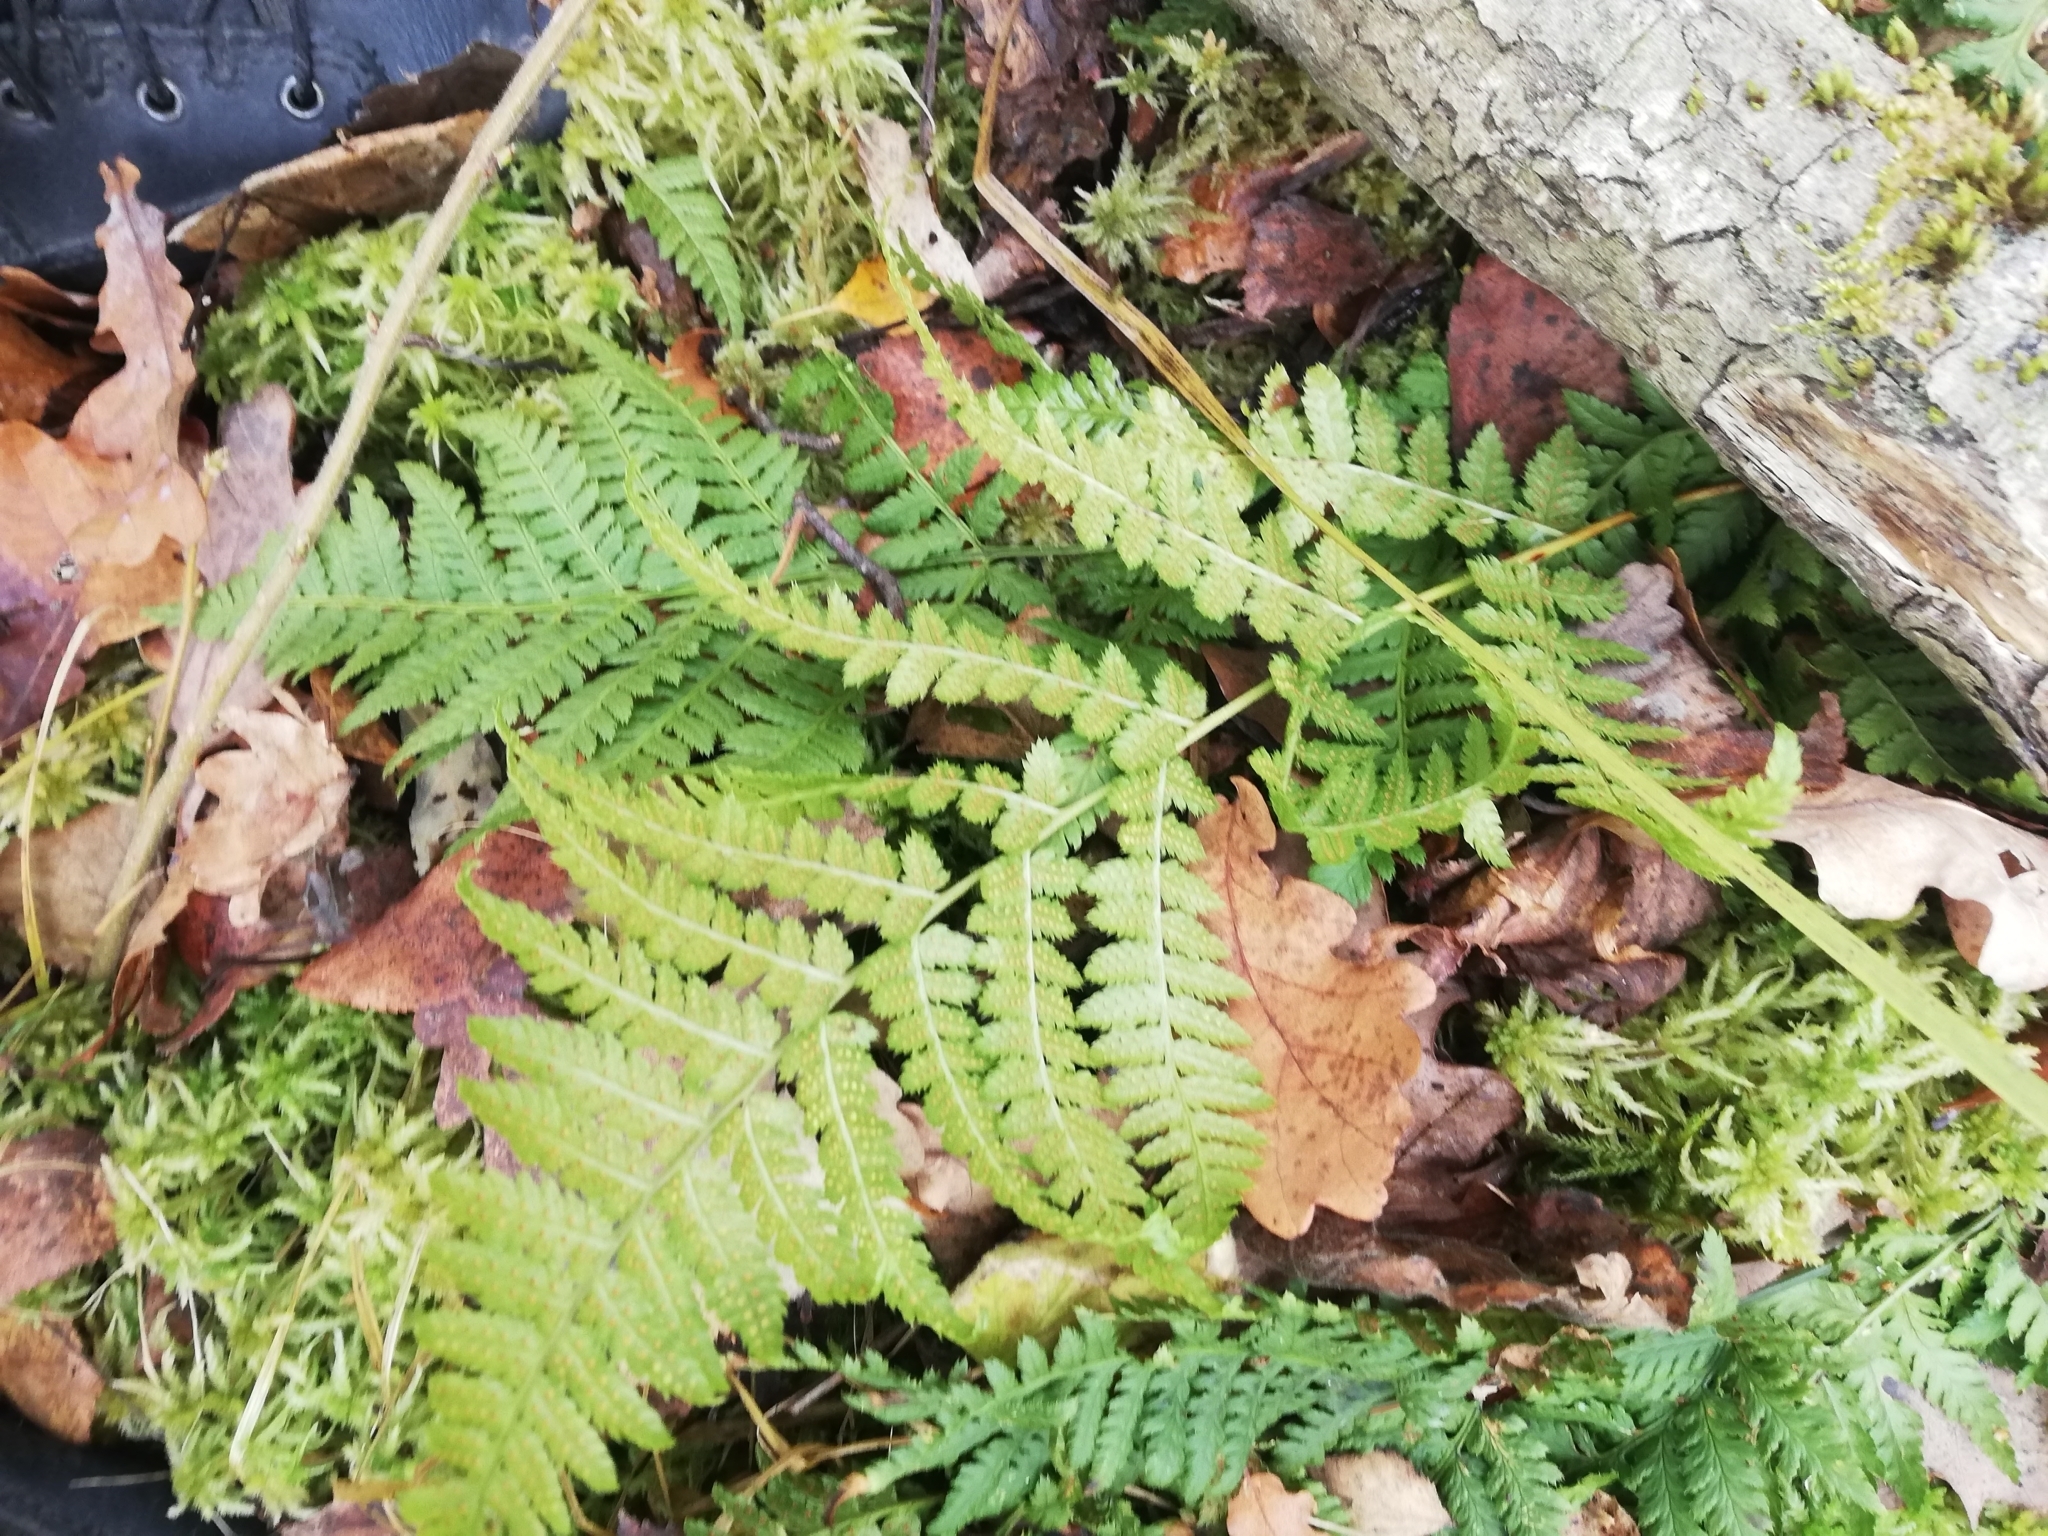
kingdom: Plantae
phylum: Tracheophyta
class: Polypodiopsida
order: Polypodiales
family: Dryopteridaceae
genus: Dryopteris
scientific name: Dryopteris carthusiana
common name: Narrow buckler-fern
